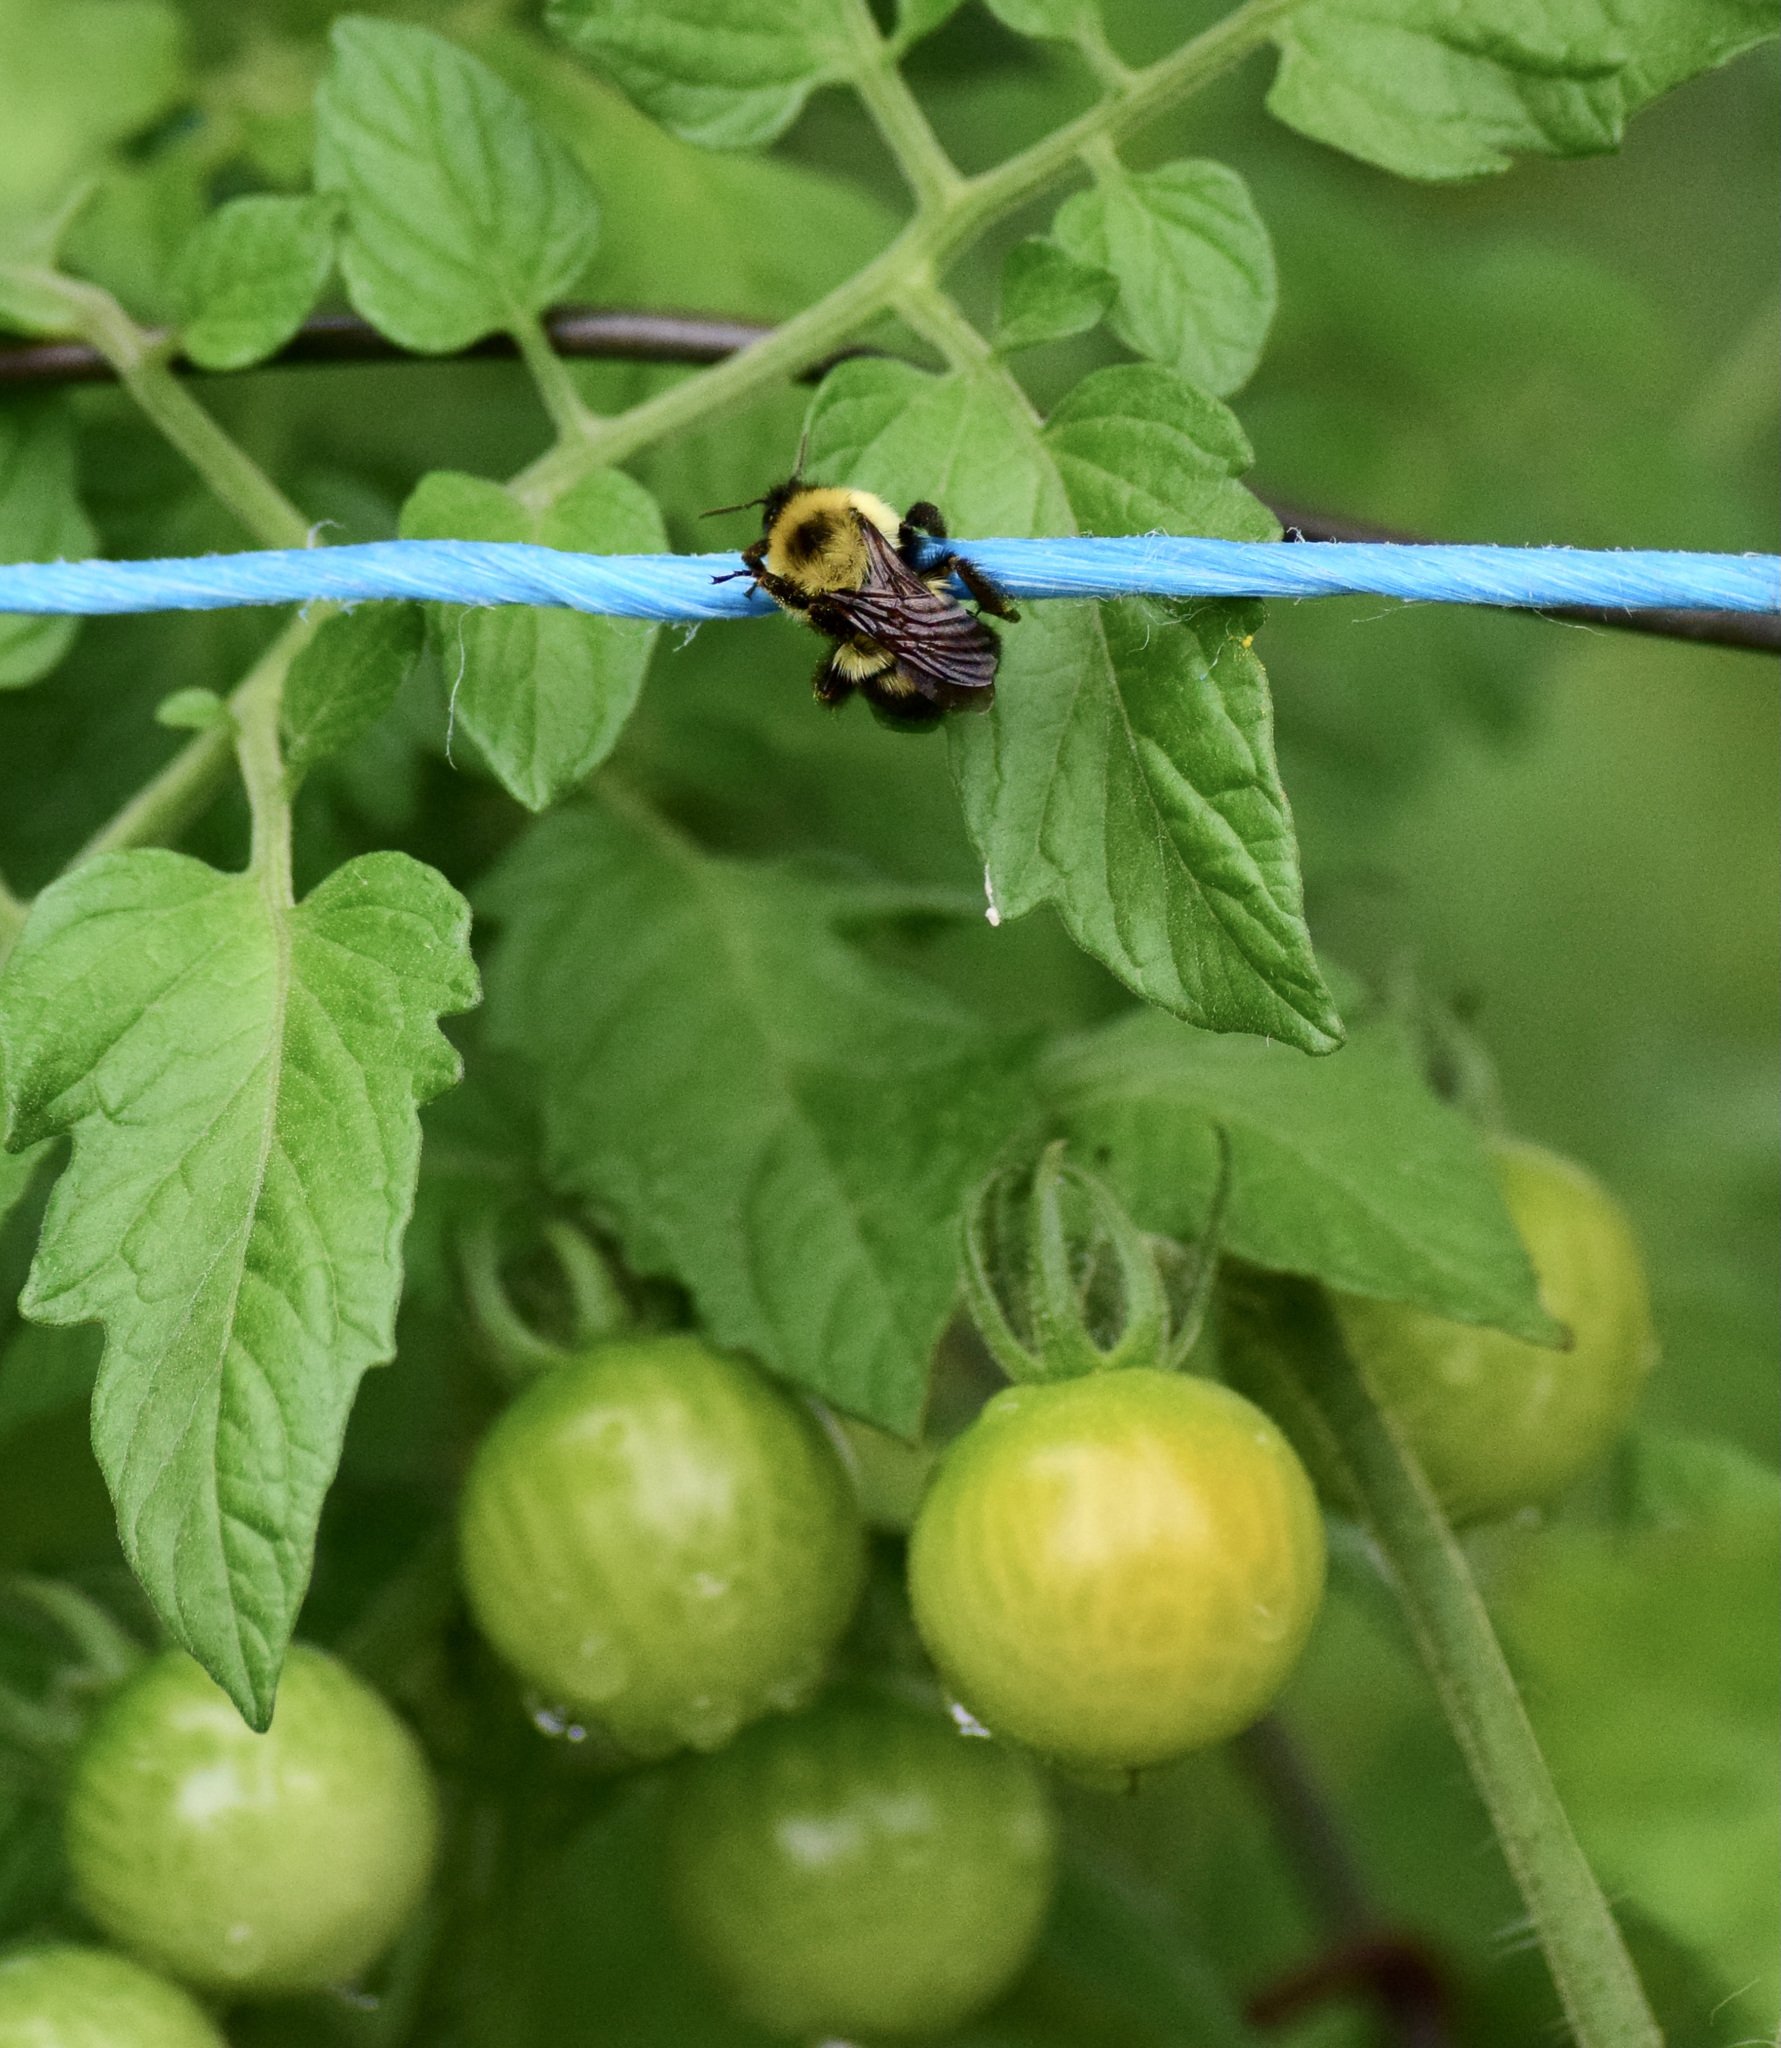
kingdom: Animalia
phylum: Arthropoda
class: Insecta
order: Hymenoptera
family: Apidae
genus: Bombus
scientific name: Bombus bimaculatus
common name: Two-spotted bumble bee
